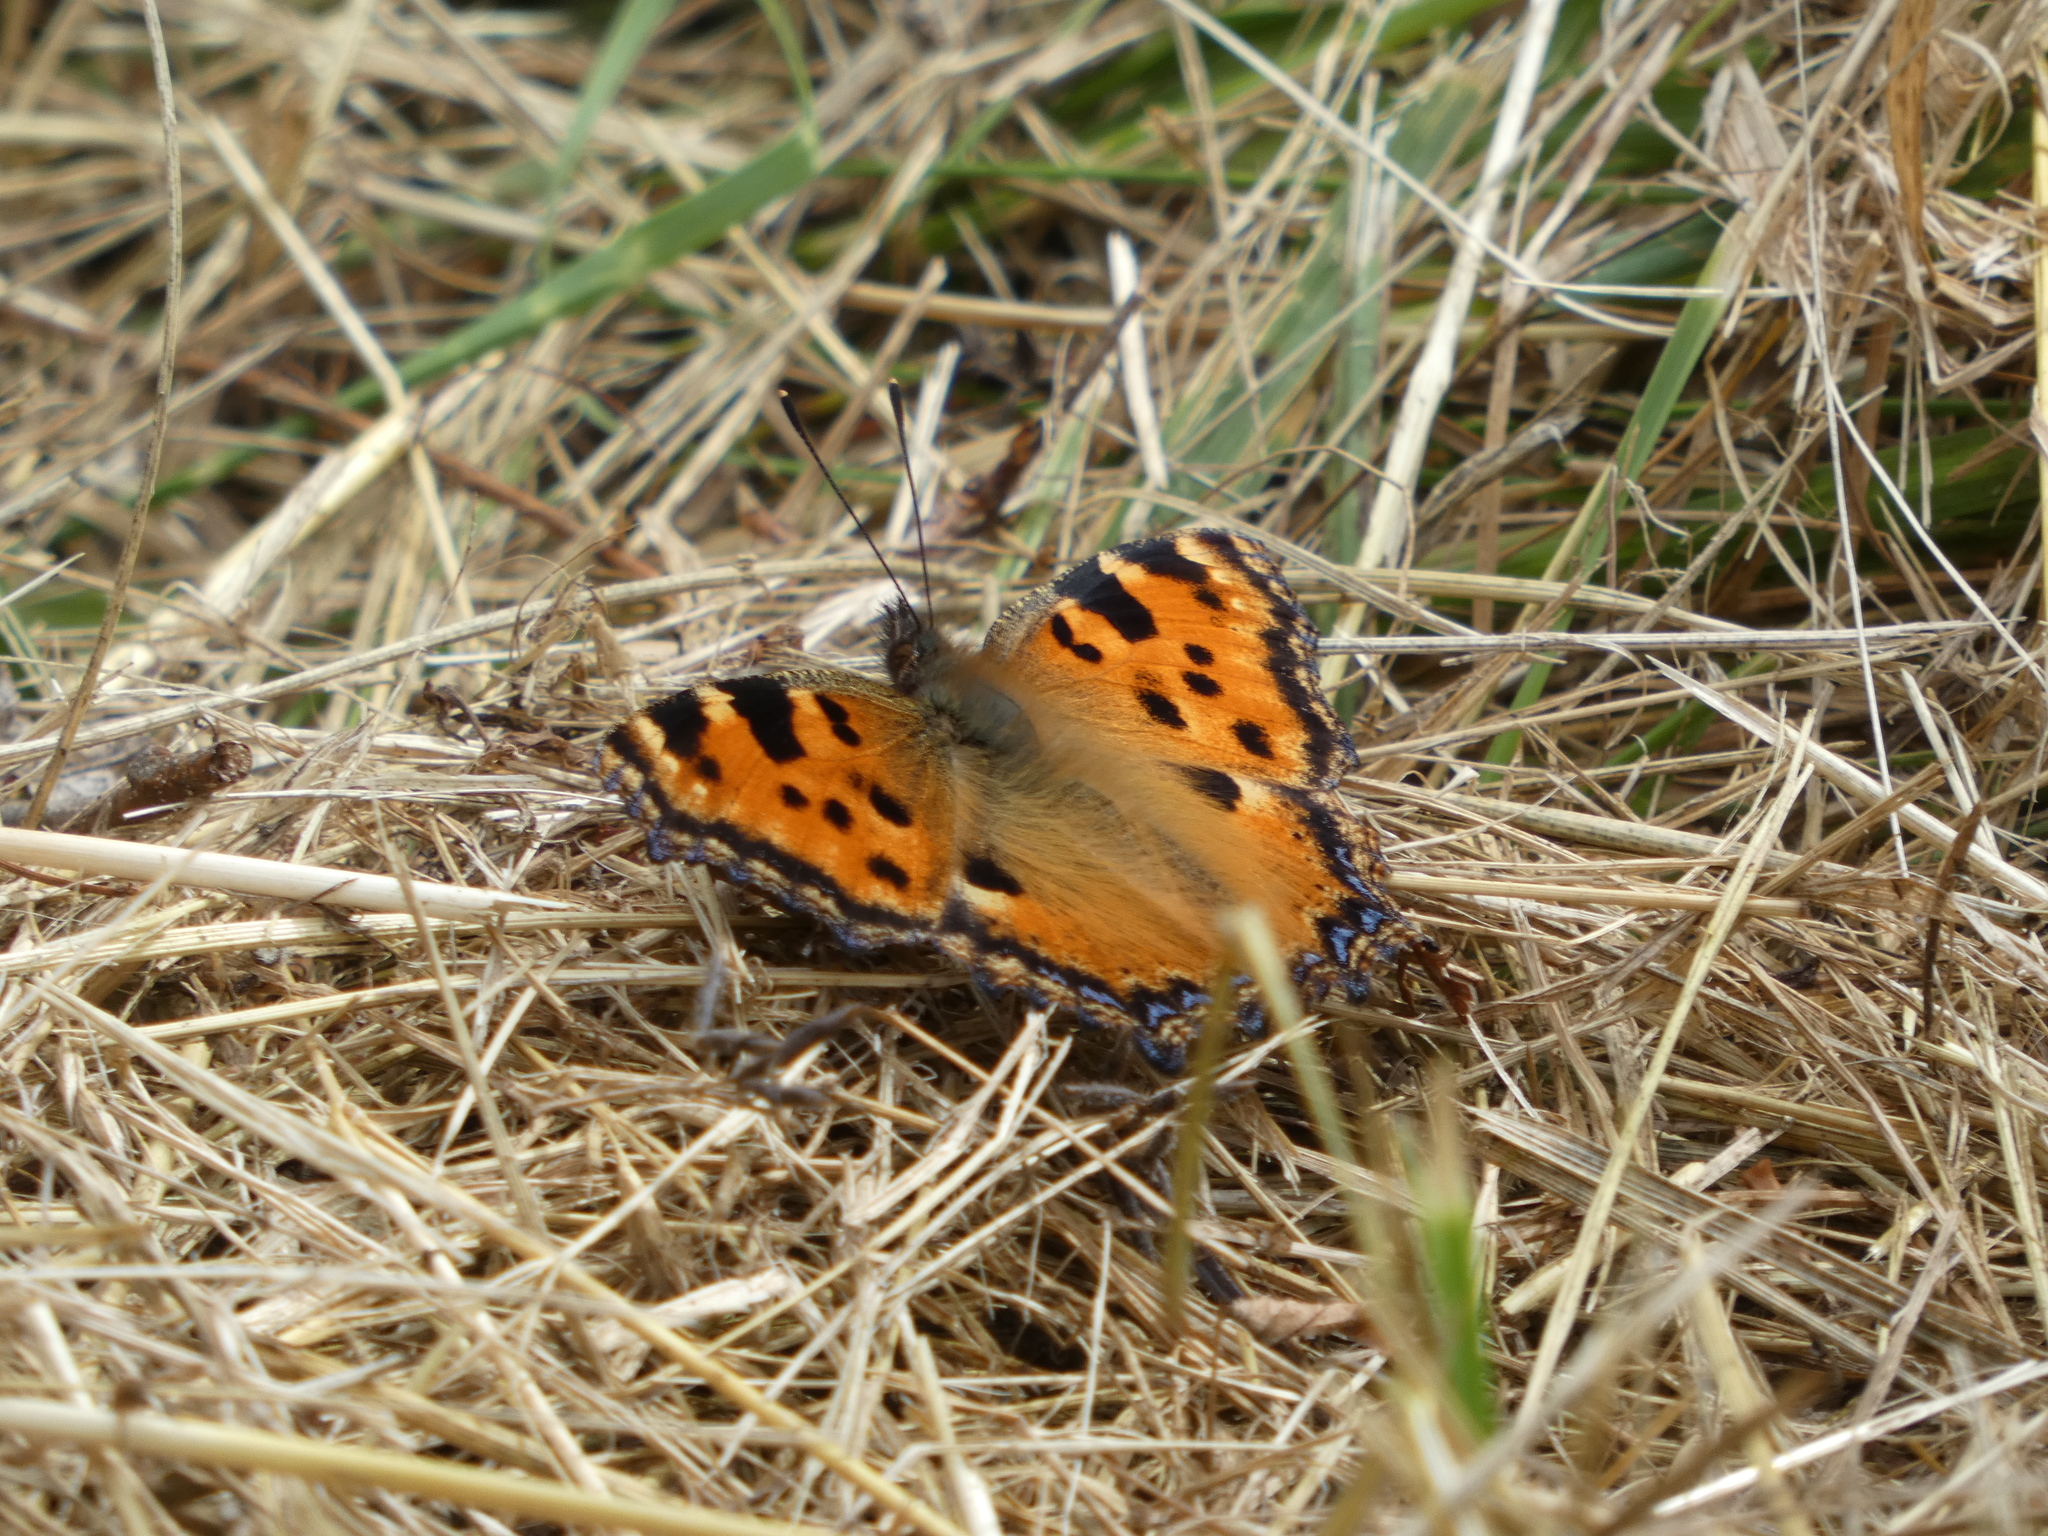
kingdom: Animalia
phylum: Arthropoda
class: Insecta
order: Lepidoptera
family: Nymphalidae
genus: Nymphalis
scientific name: Nymphalis polychloros
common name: Large tortoiseshell
